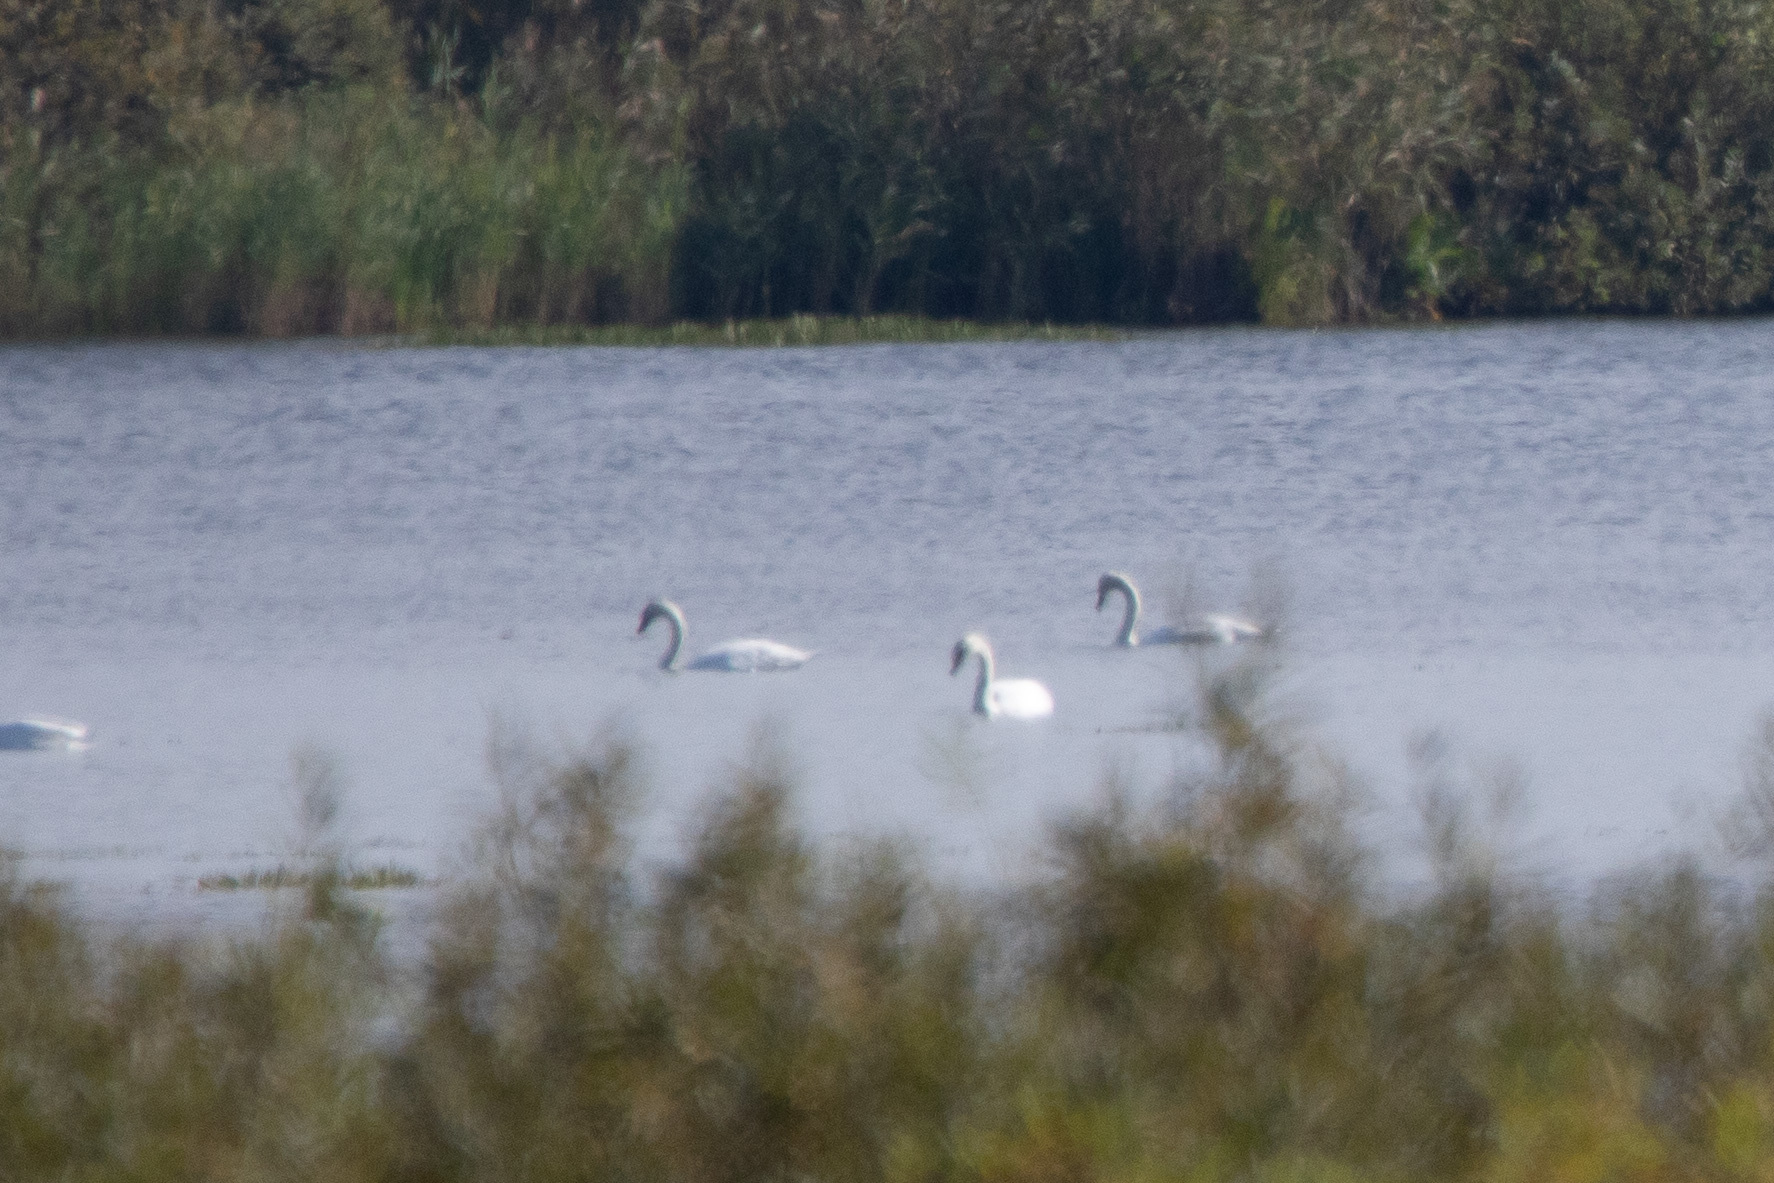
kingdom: Animalia
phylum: Chordata
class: Aves
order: Anseriformes
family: Anatidae
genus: Cygnus
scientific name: Cygnus olor
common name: Mute swan
